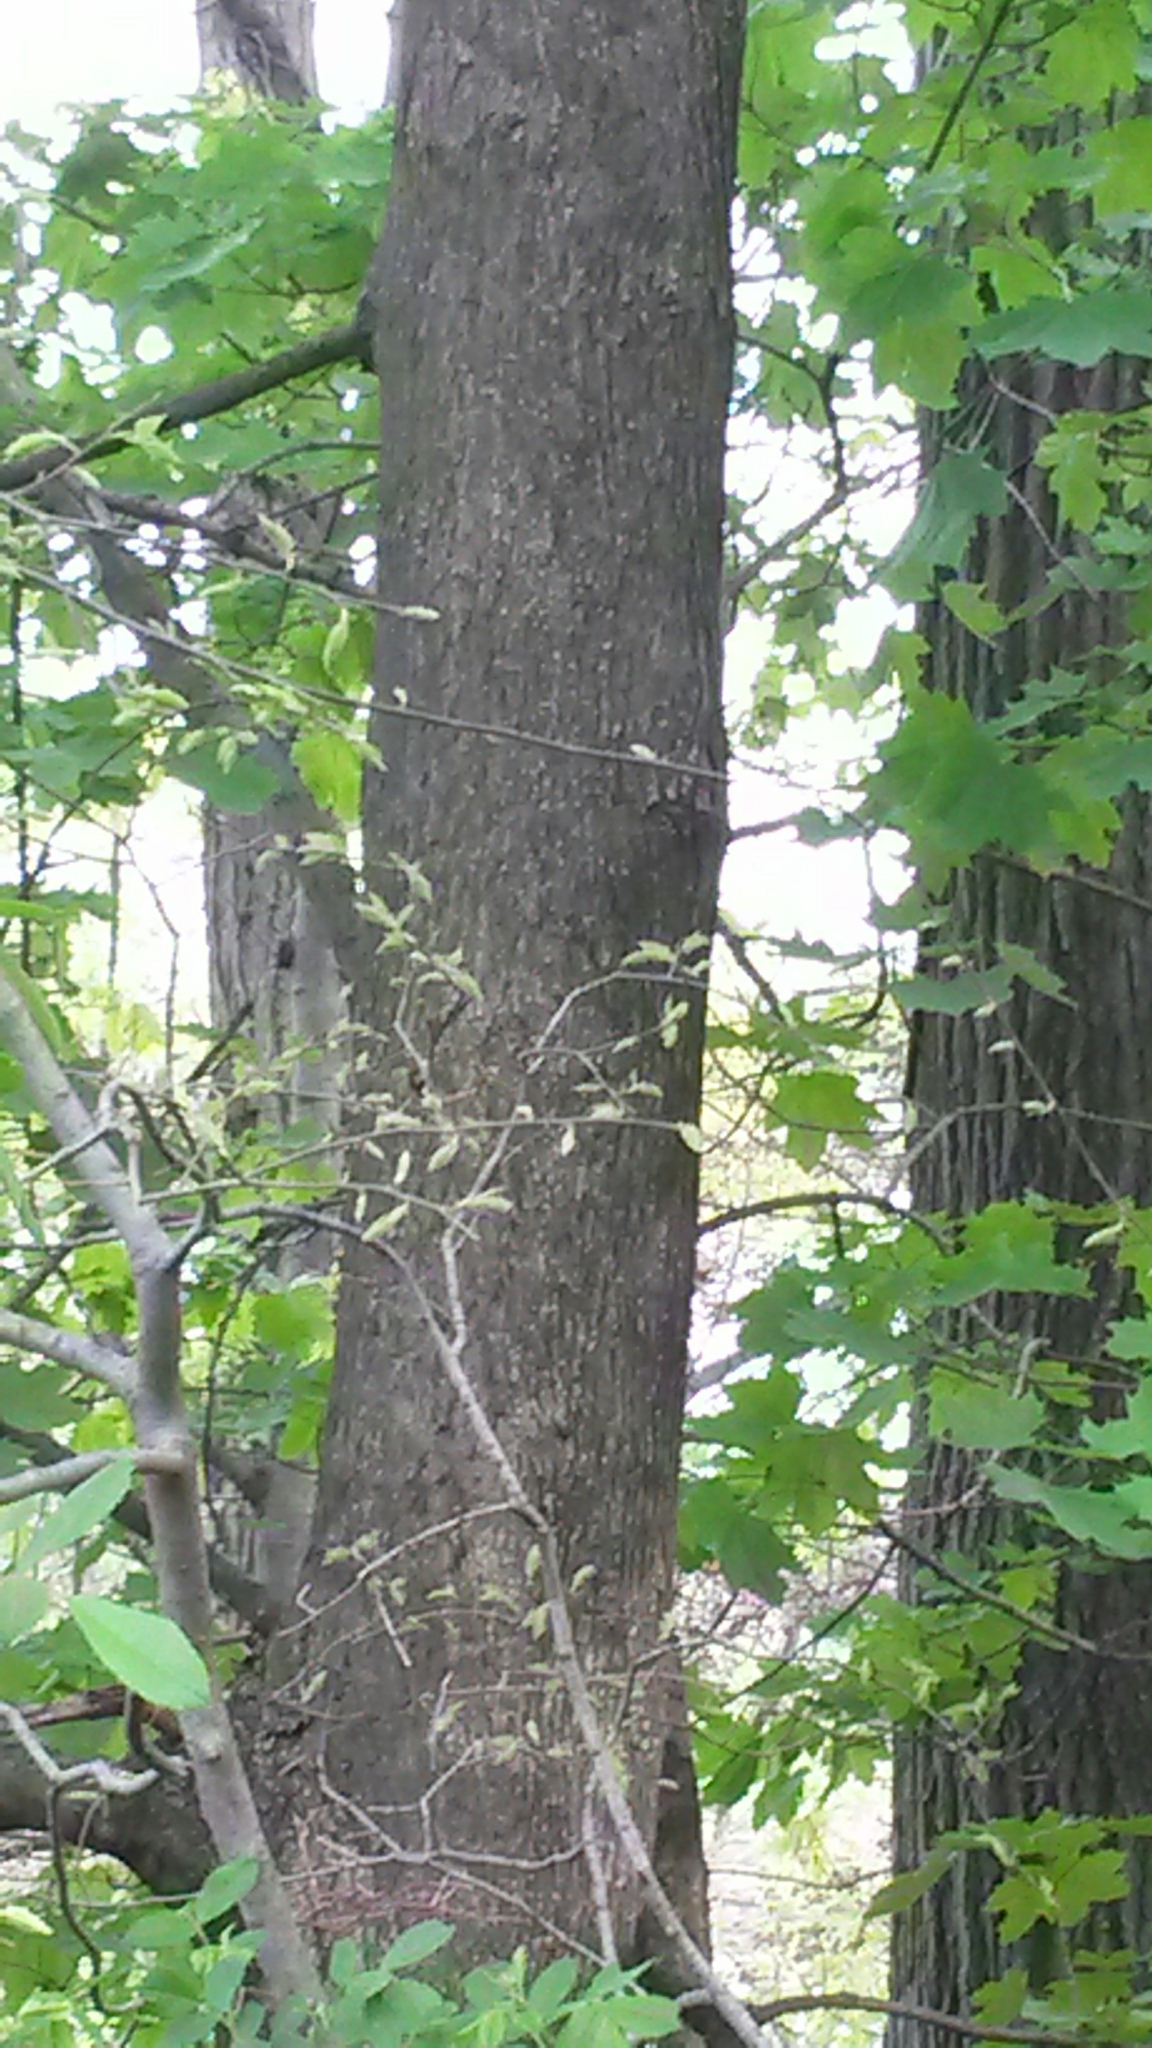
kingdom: Plantae
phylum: Tracheophyta
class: Magnoliopsida
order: Sapindales
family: Sapindaceae
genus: Acer
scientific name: Acer platanoides
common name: Norway maple
